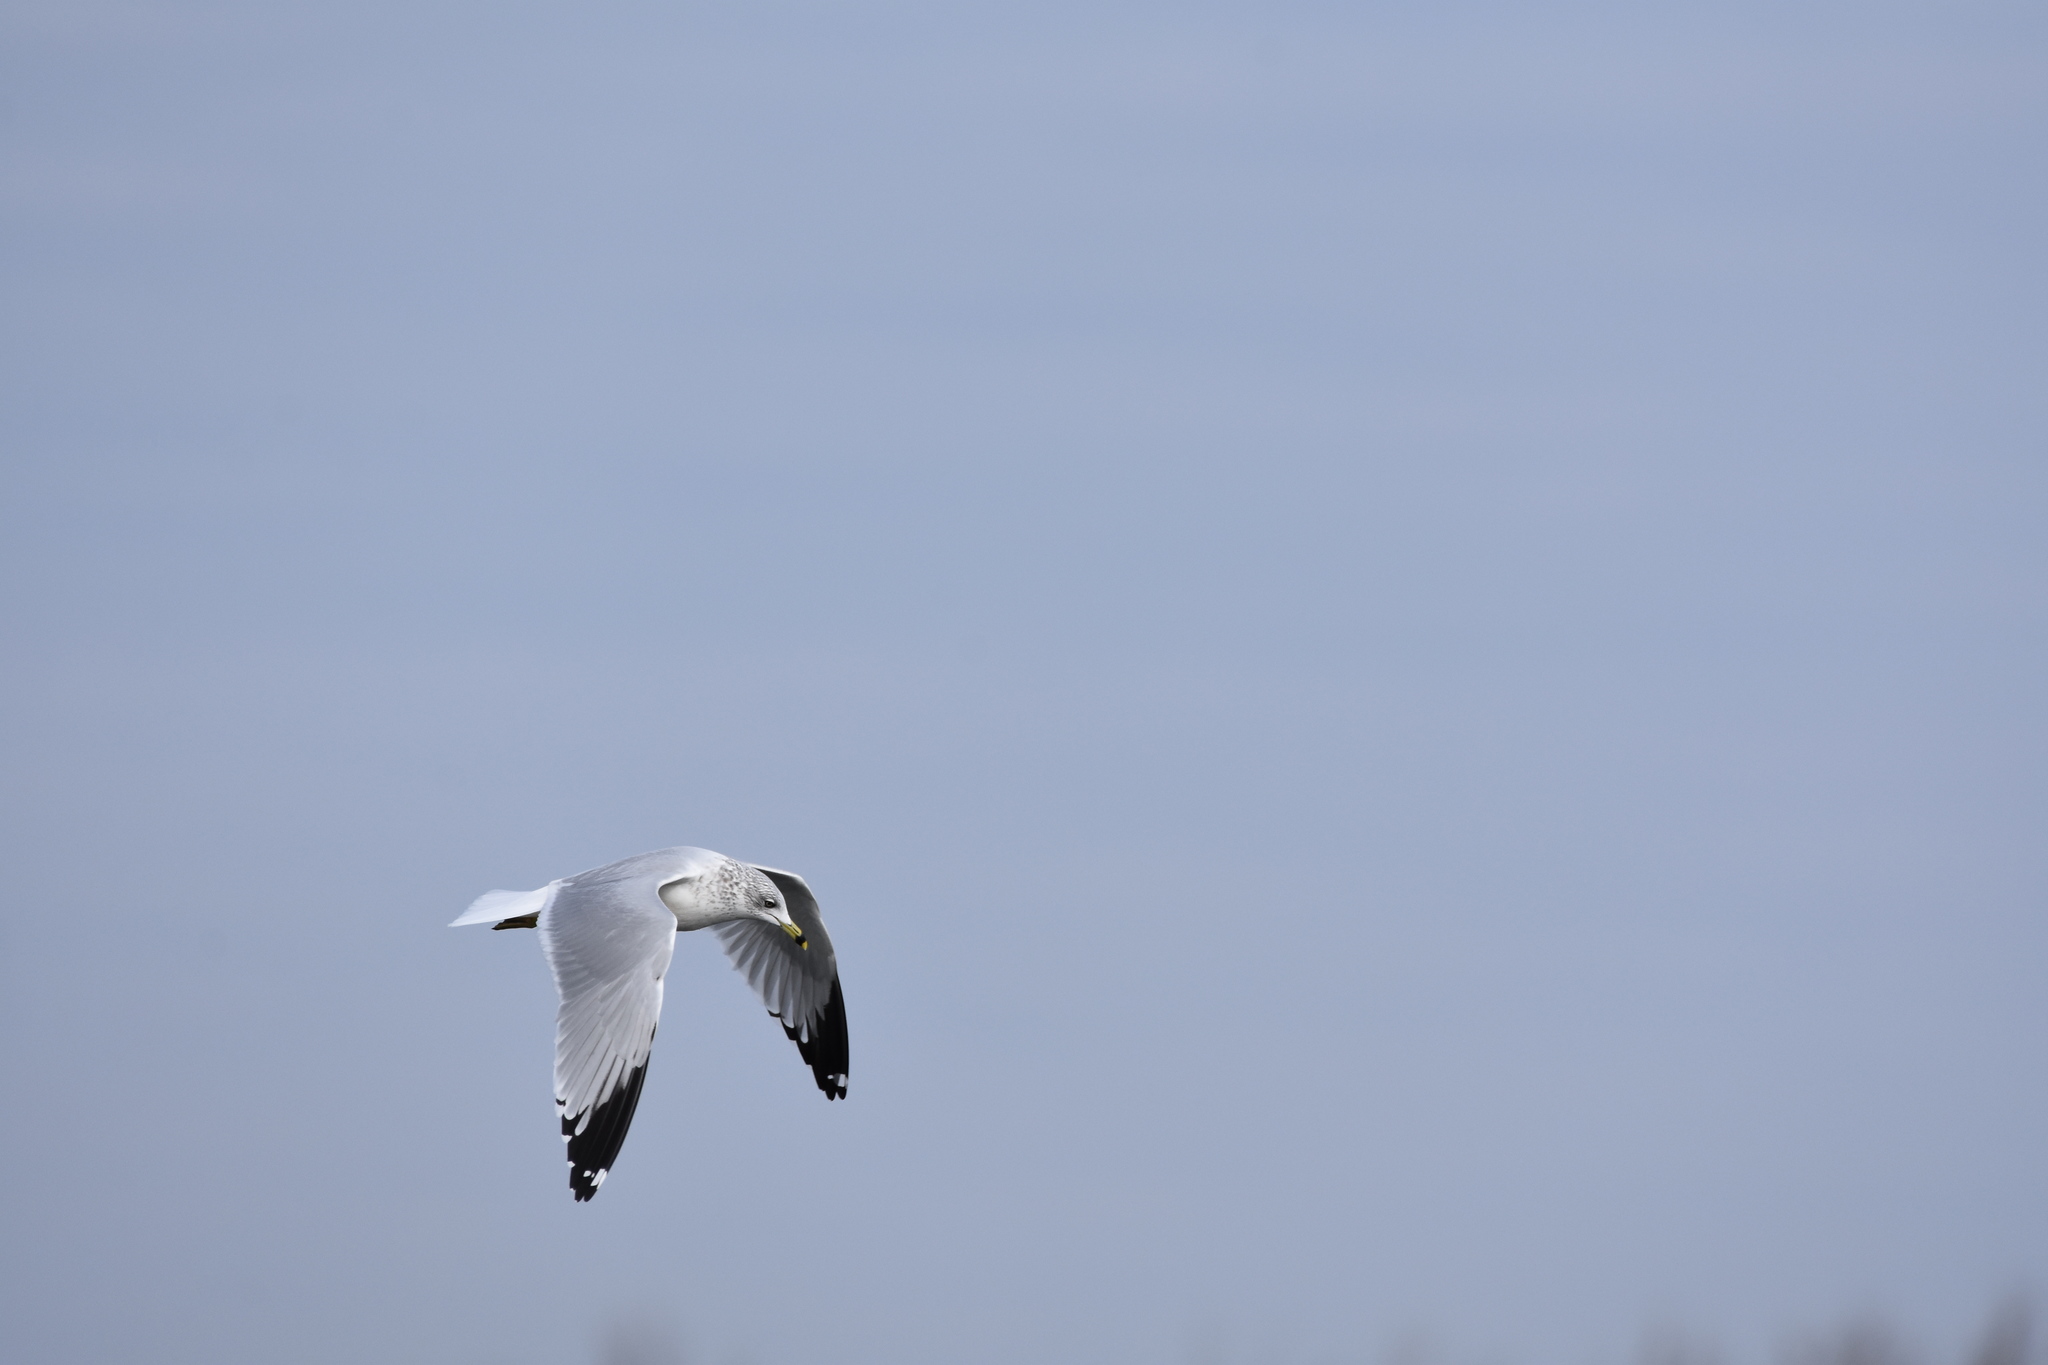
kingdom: Animalia
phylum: Chordata
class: Aves
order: Charadriiformes
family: Laridae
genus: Larus
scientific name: Larus delawarensis
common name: Ring-billed gull
